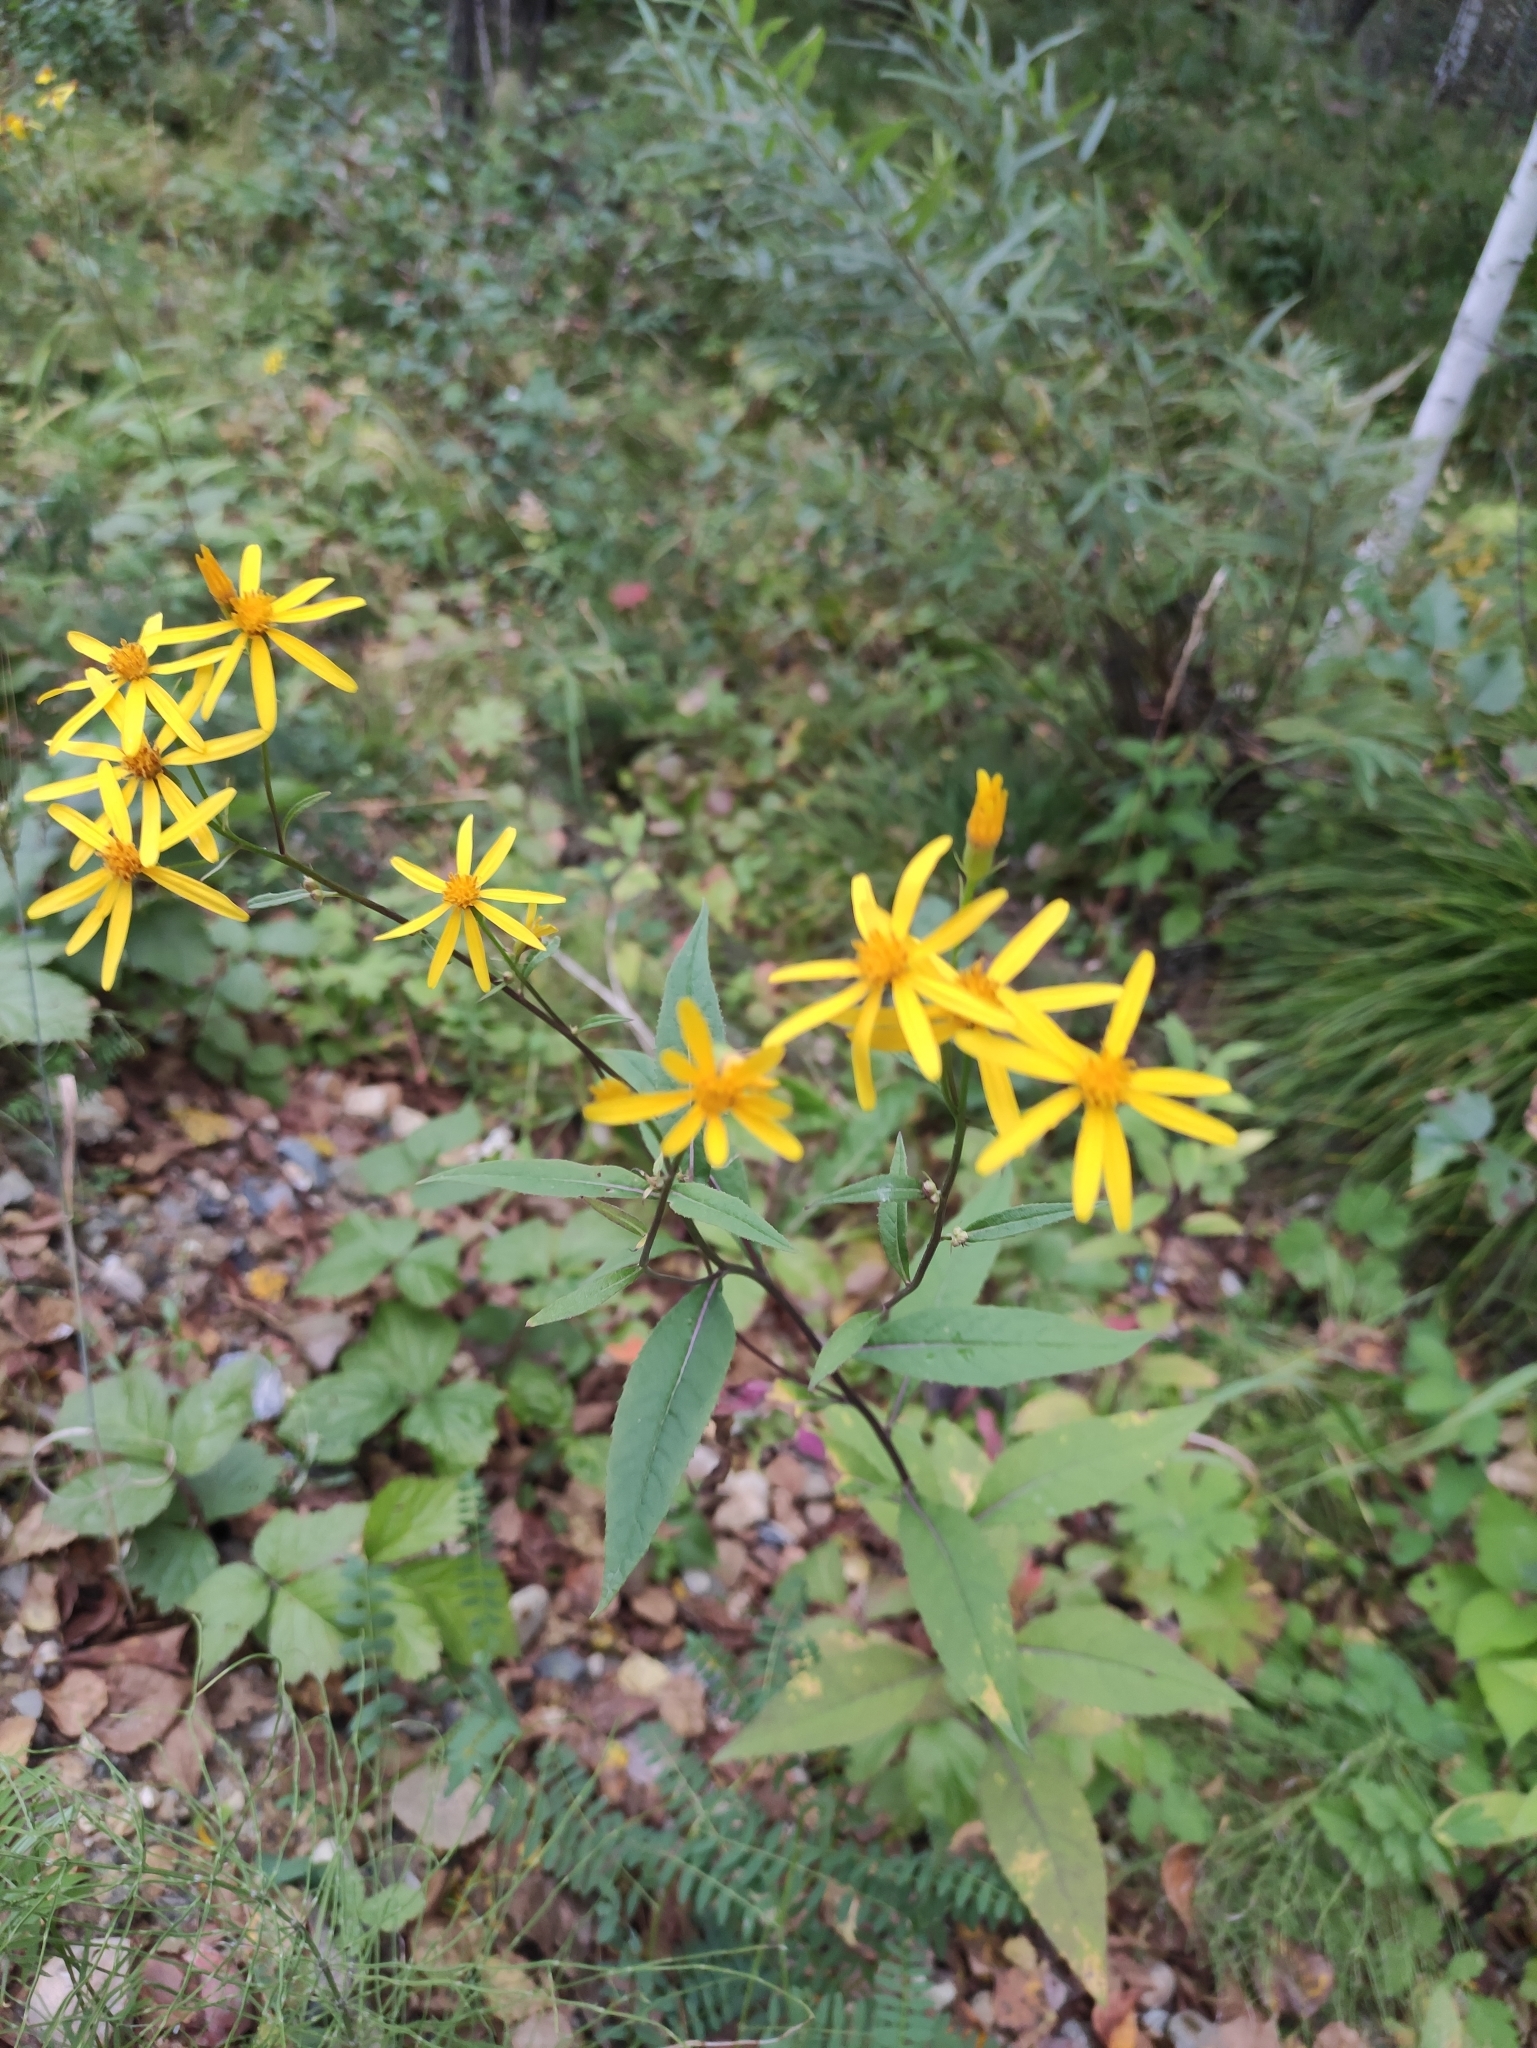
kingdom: Plantae
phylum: Tracheophyta
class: Magnoliopsida
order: Asterales
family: Asteraceae
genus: Senecio
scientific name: Senecio nemorensis
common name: Alpine ragwort
